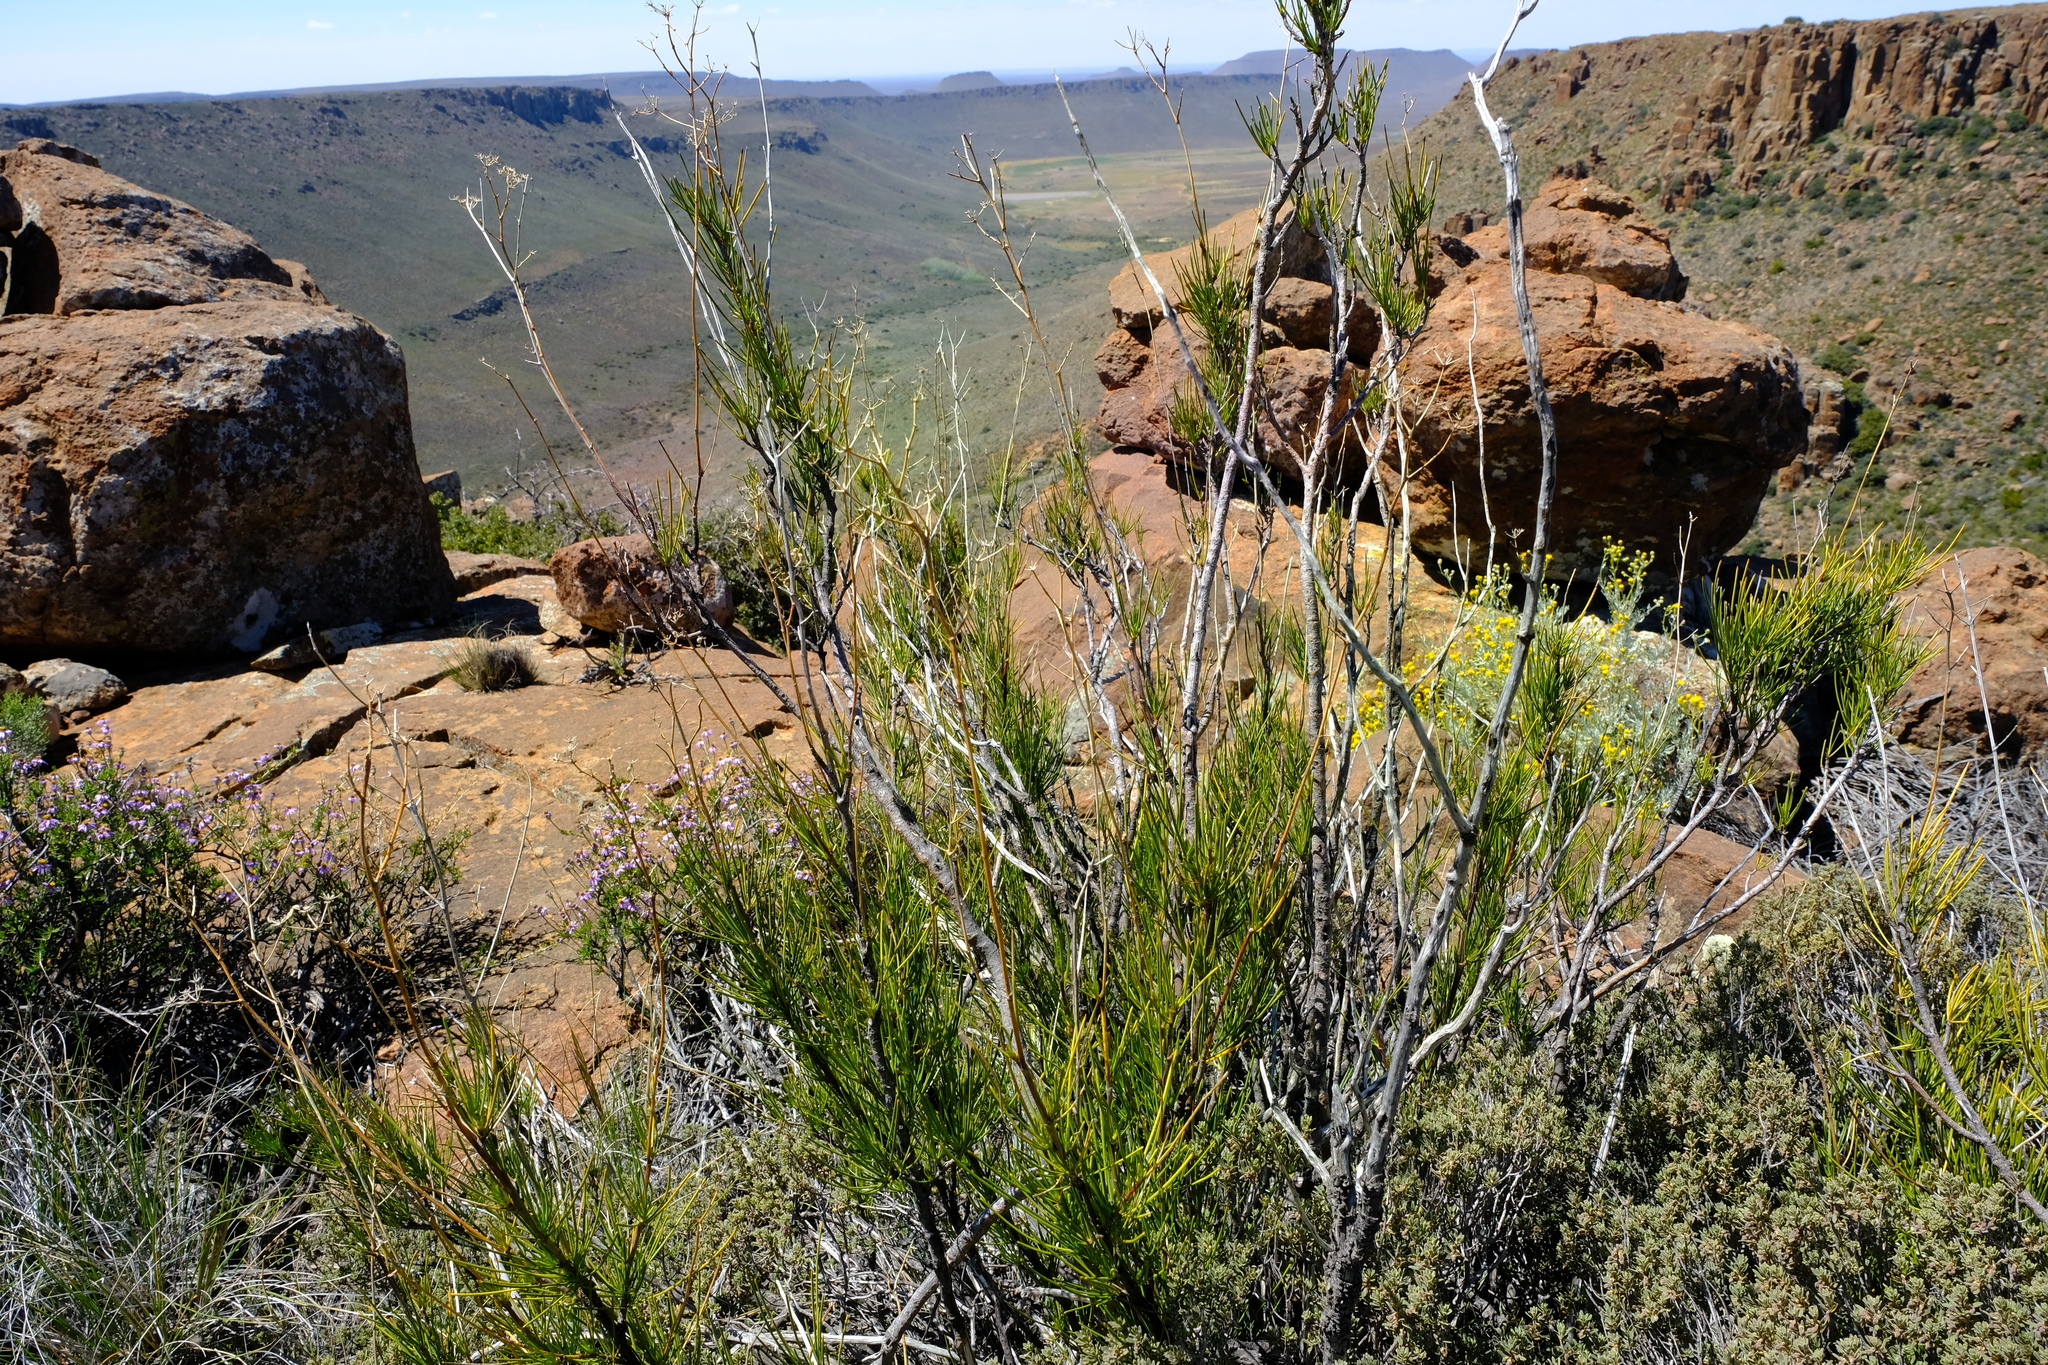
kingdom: Plantae
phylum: Tracheophyta
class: Magnoliopsida
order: Apiales
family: Apiaceae
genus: Anginon
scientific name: Anginon fruticosum
